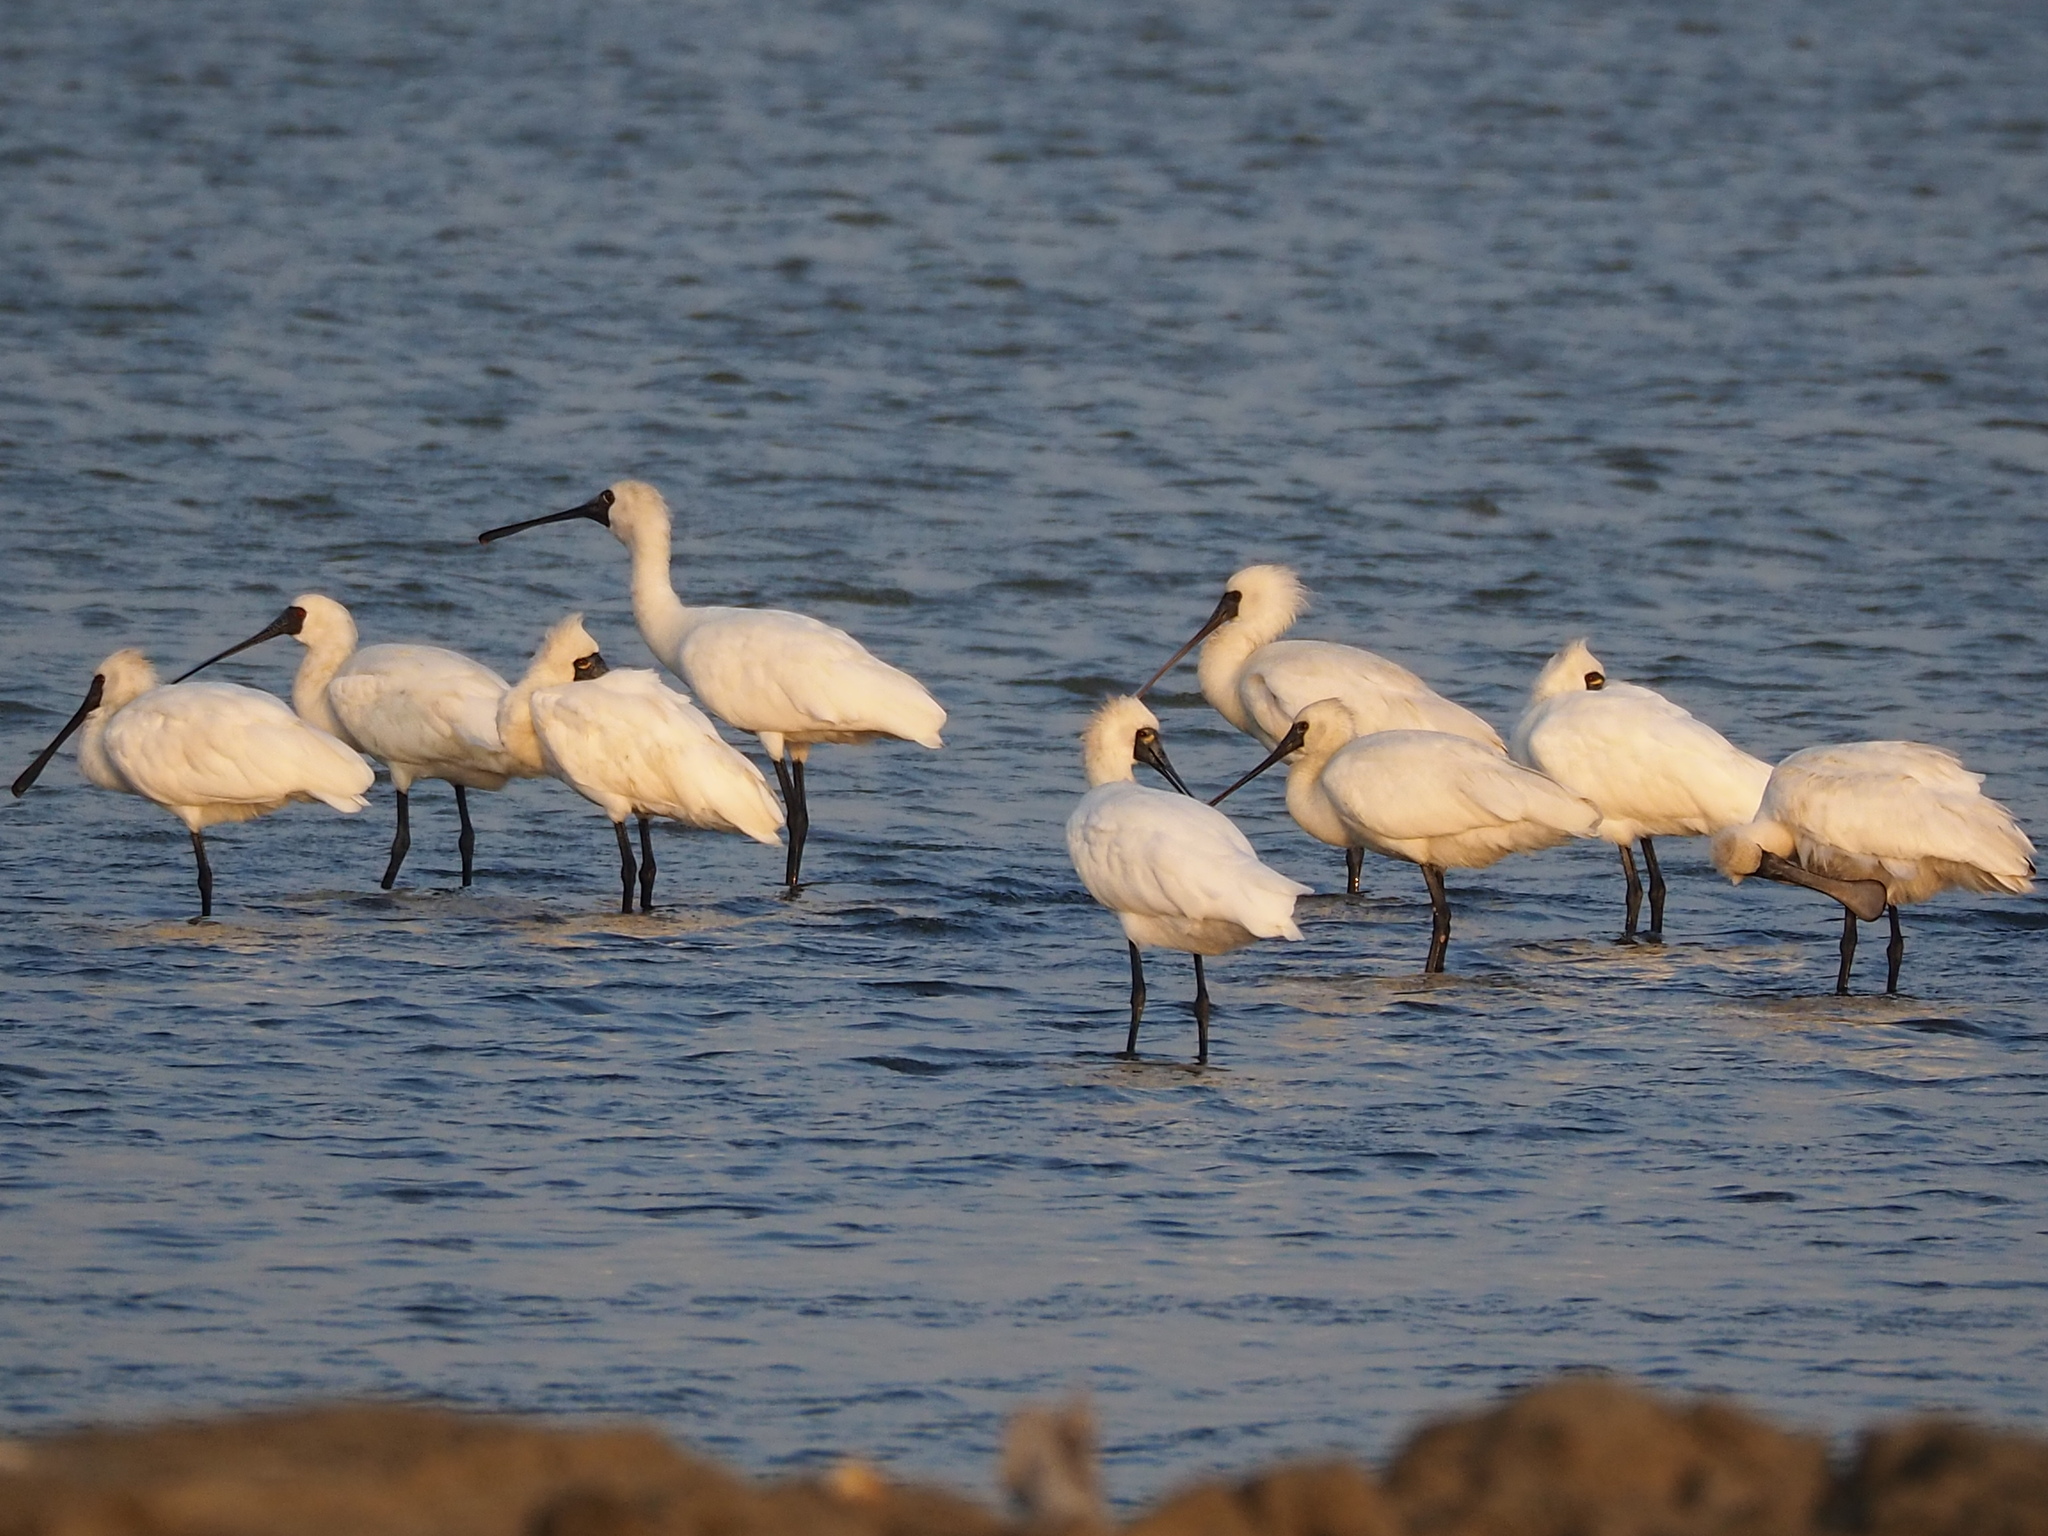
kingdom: Animalia
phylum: Chordata
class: Aves
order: Pelecaniformes
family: Threskiornithidae
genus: Platalea
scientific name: Platalea minor
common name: Black-faced spoonbill
